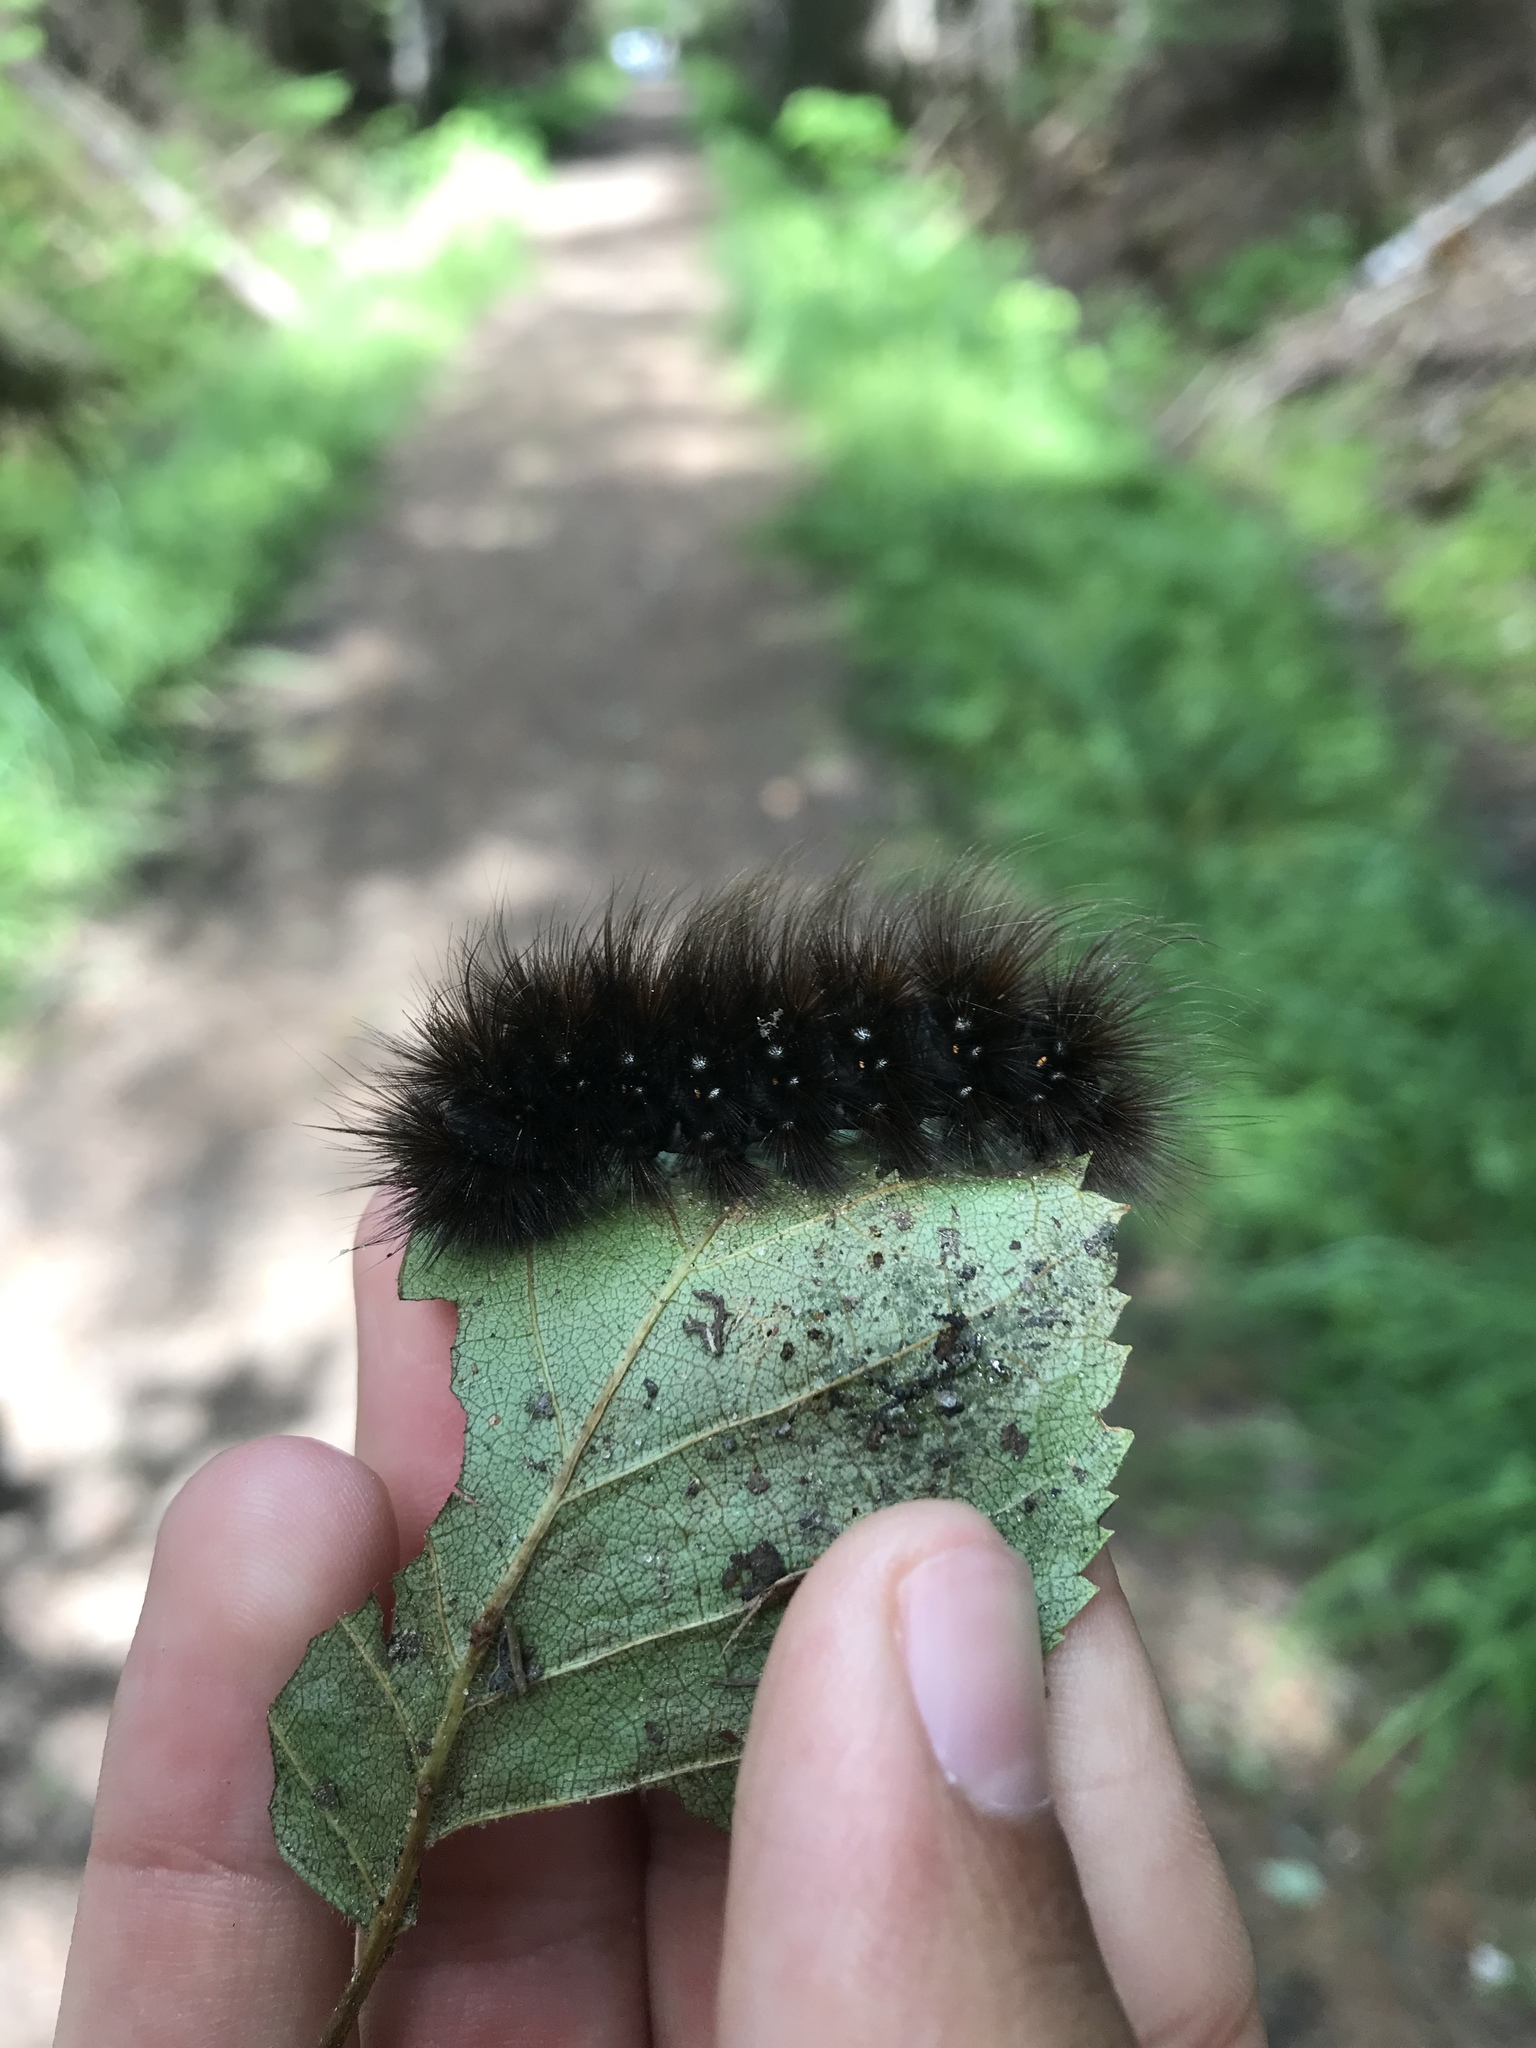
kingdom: Animalia
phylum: Arthropoda
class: Insecta
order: Lepidoptera
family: Erebidae
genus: Arctia
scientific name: Arctia parthenos
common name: St. lawrence tiger moth
